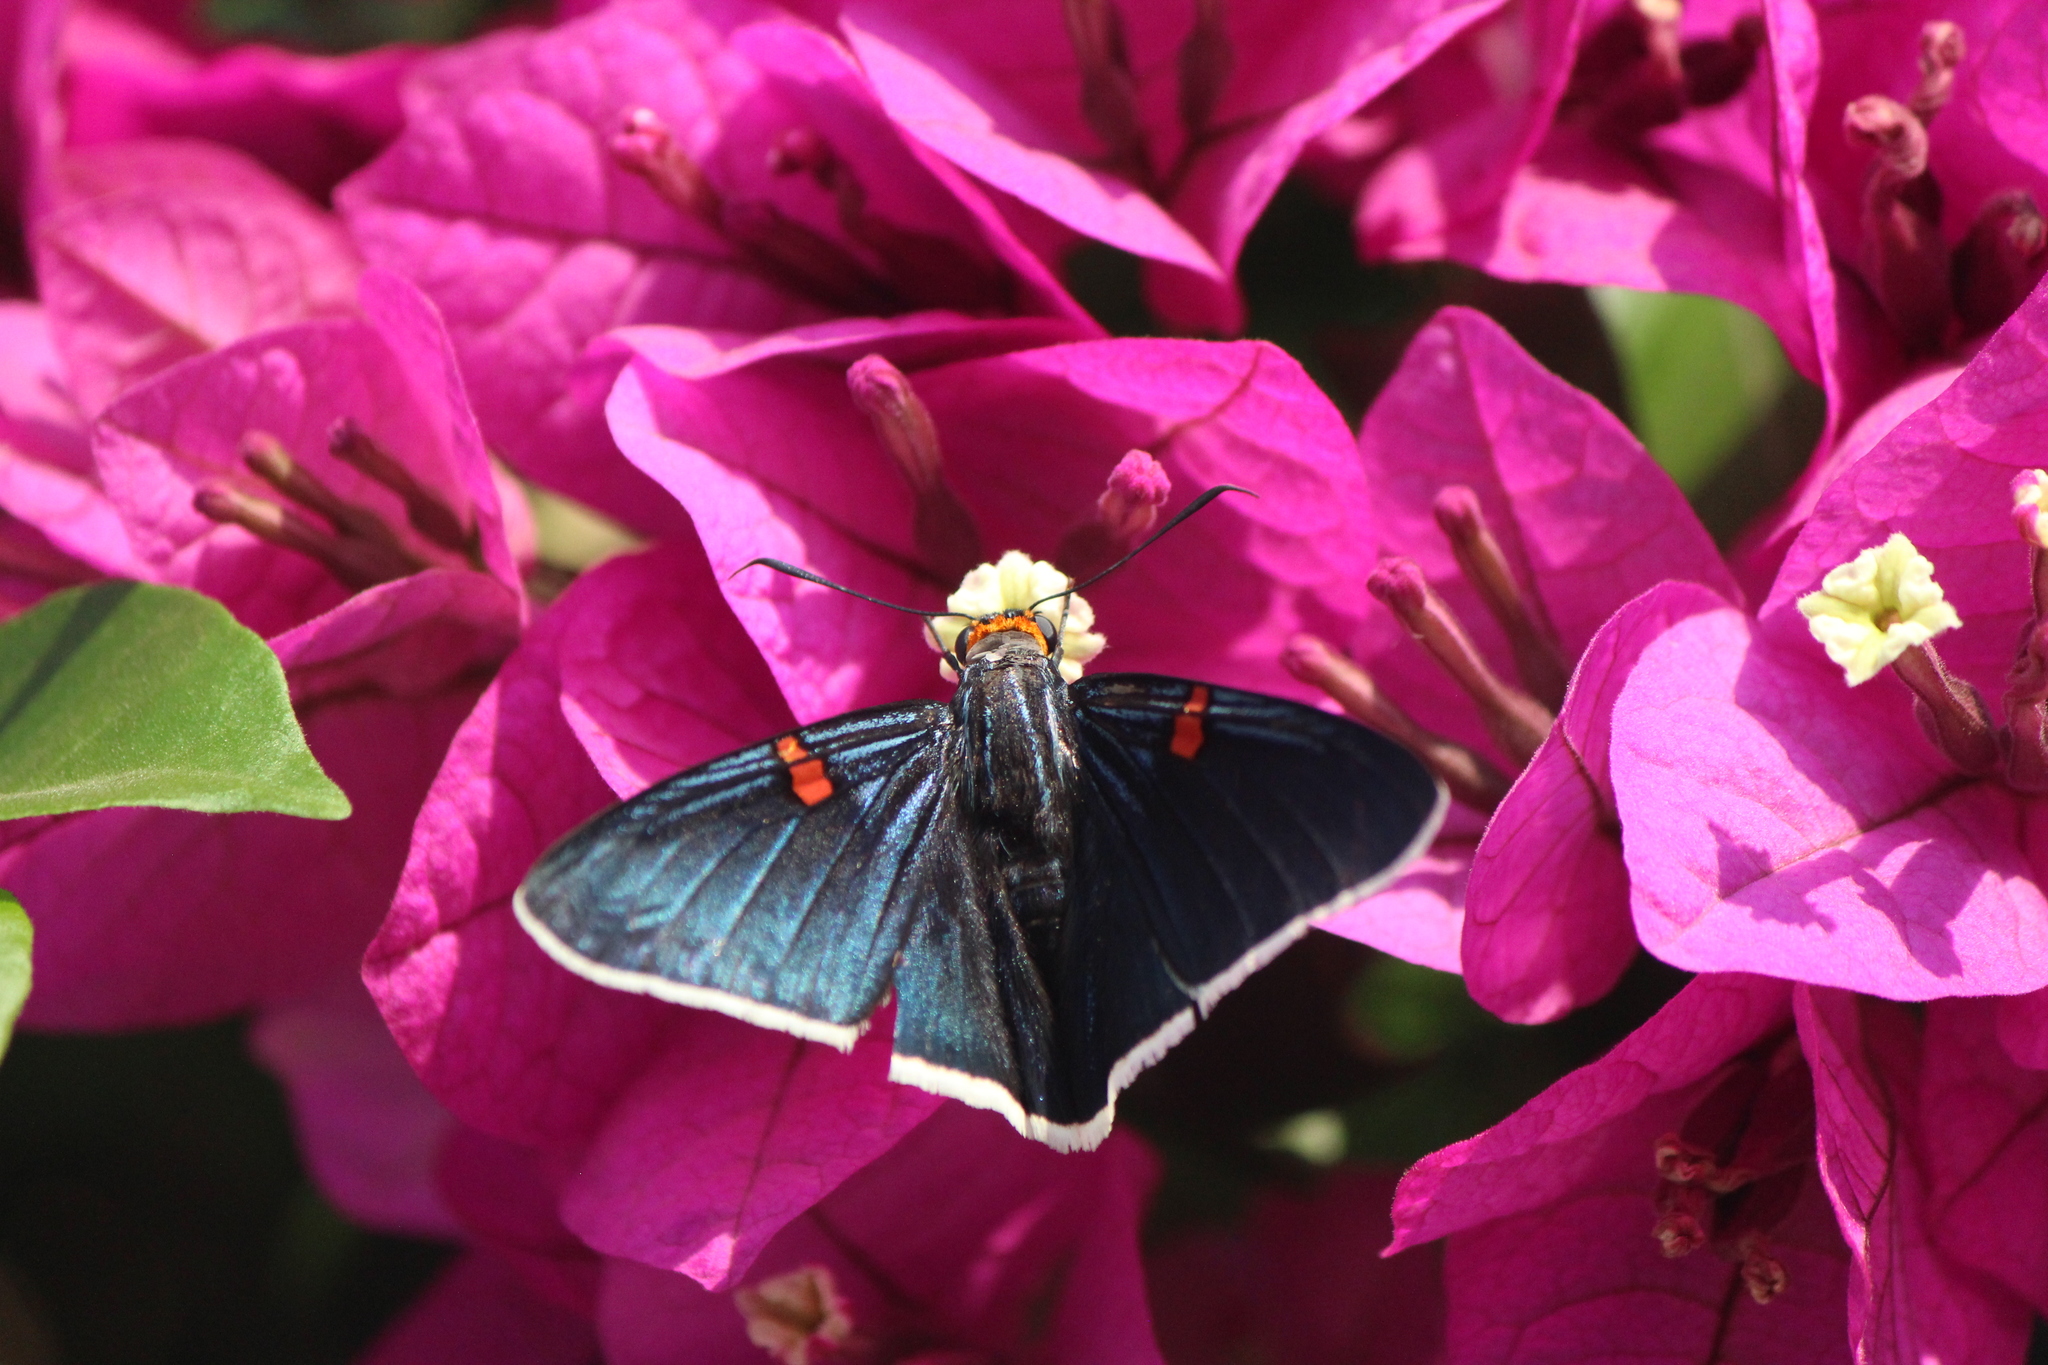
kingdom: Animalia
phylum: Arthropoda
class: Insecta
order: Lepidoptera
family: Hesperiidae
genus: Phocides
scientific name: Phocides lilea
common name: Guava skipper
